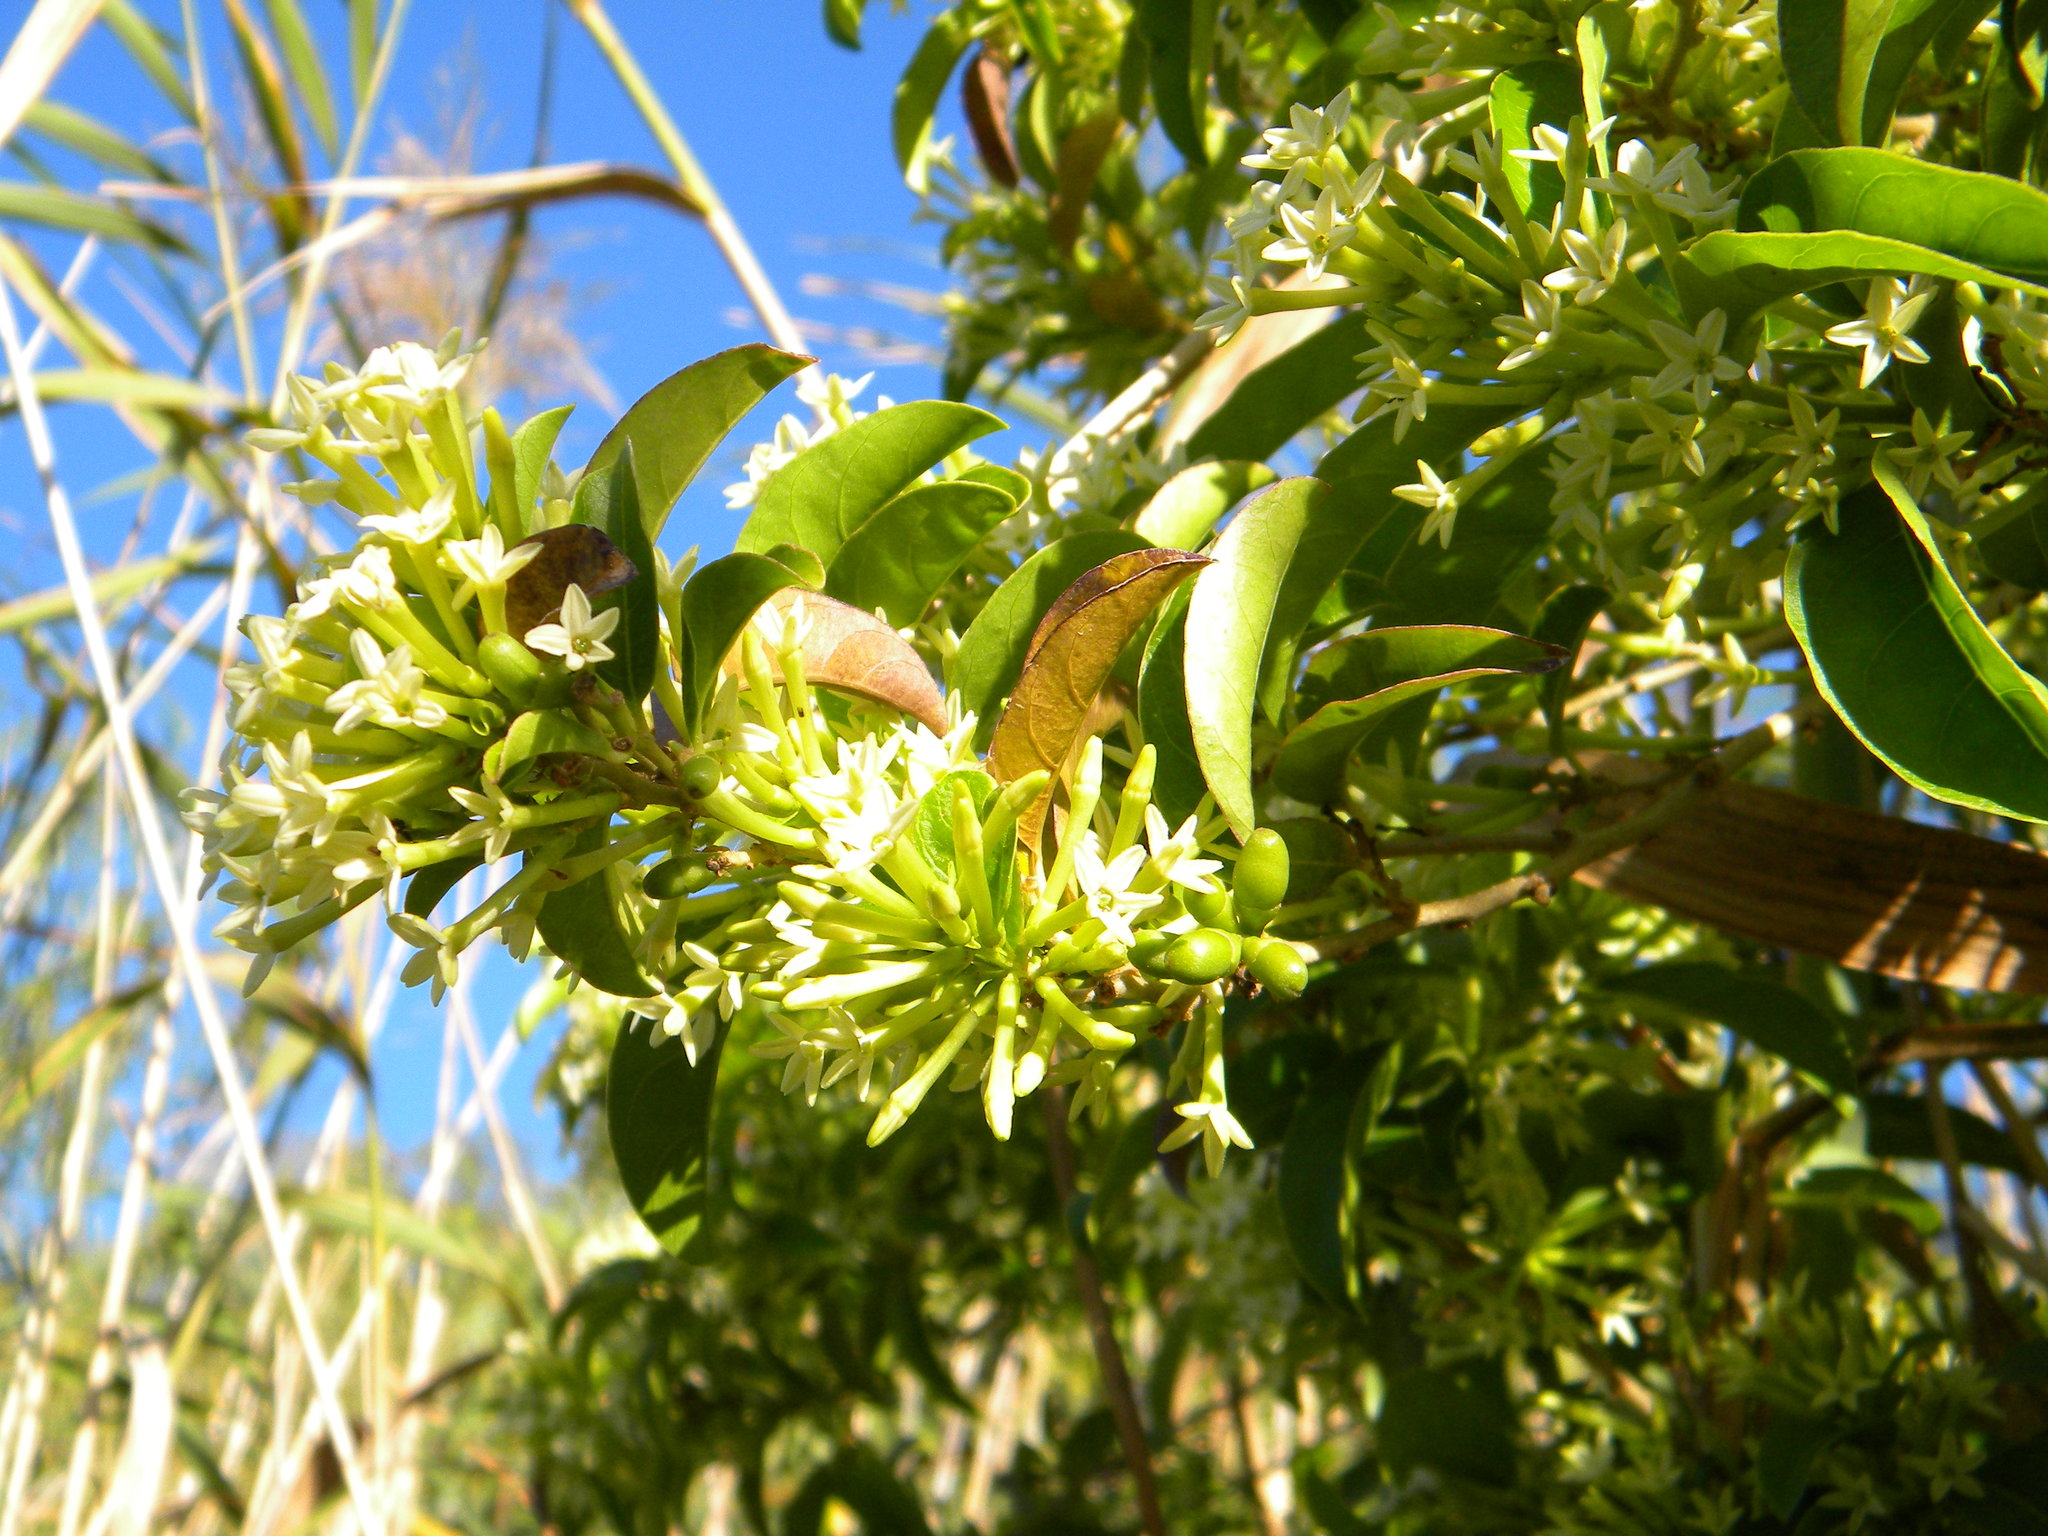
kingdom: Plantae
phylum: Tracheophyta
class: Magnoliopsida
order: Solanales
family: Solanaceae
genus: Cestrum
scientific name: Cestrum laevigatum
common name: Inkberry
